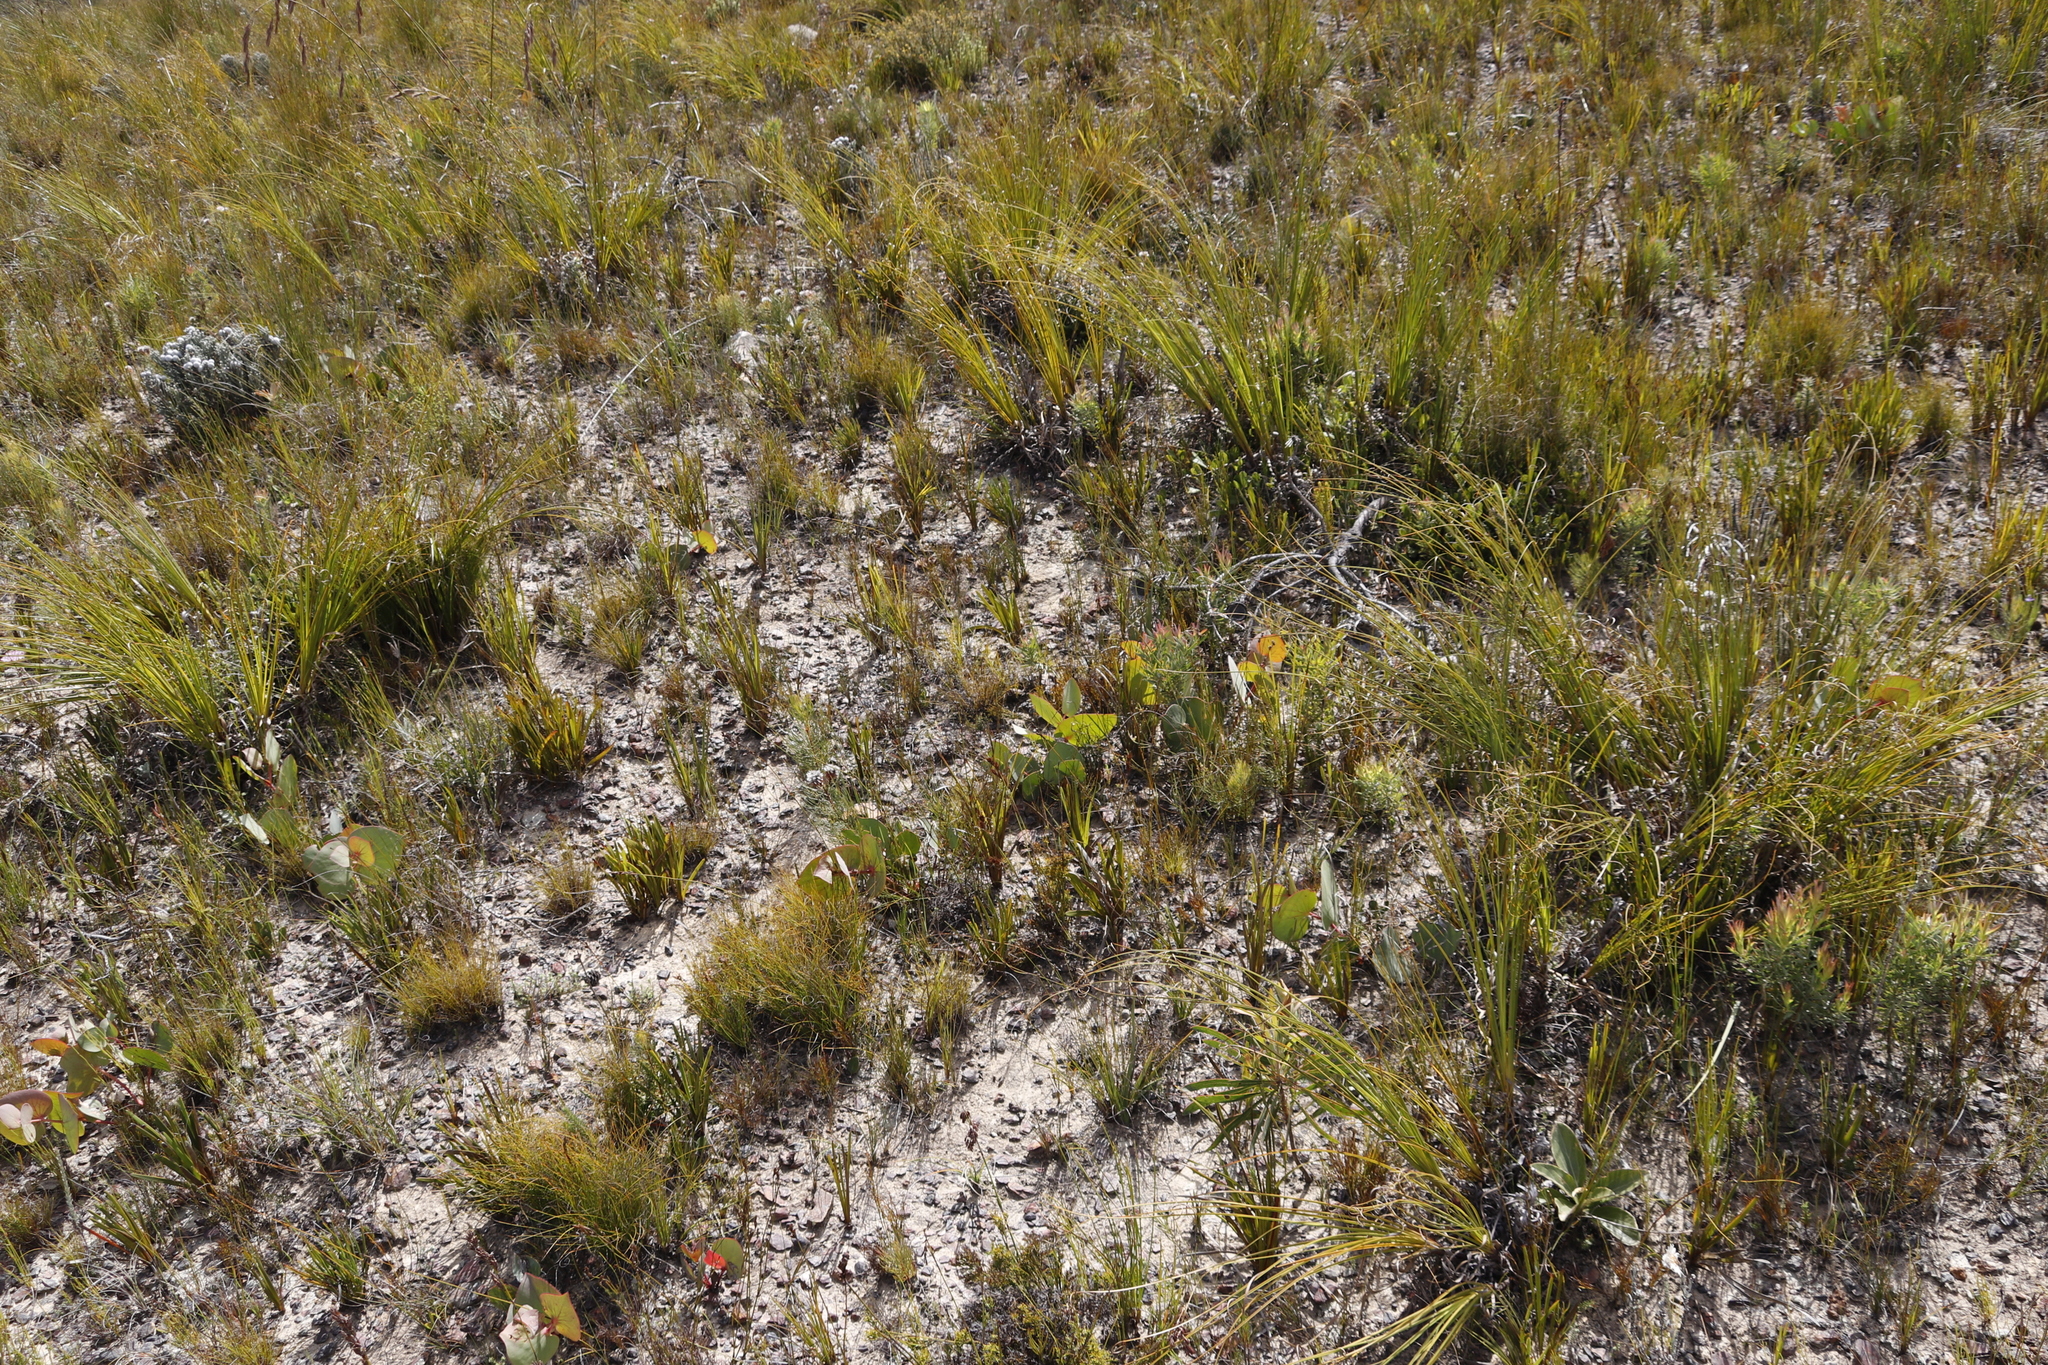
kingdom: Plantae
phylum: Tracheophyta
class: Magnoliopsida
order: Proteales
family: Proteaceae
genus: Protea
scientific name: Protea cordata
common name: Heart-leaf sugarbush
